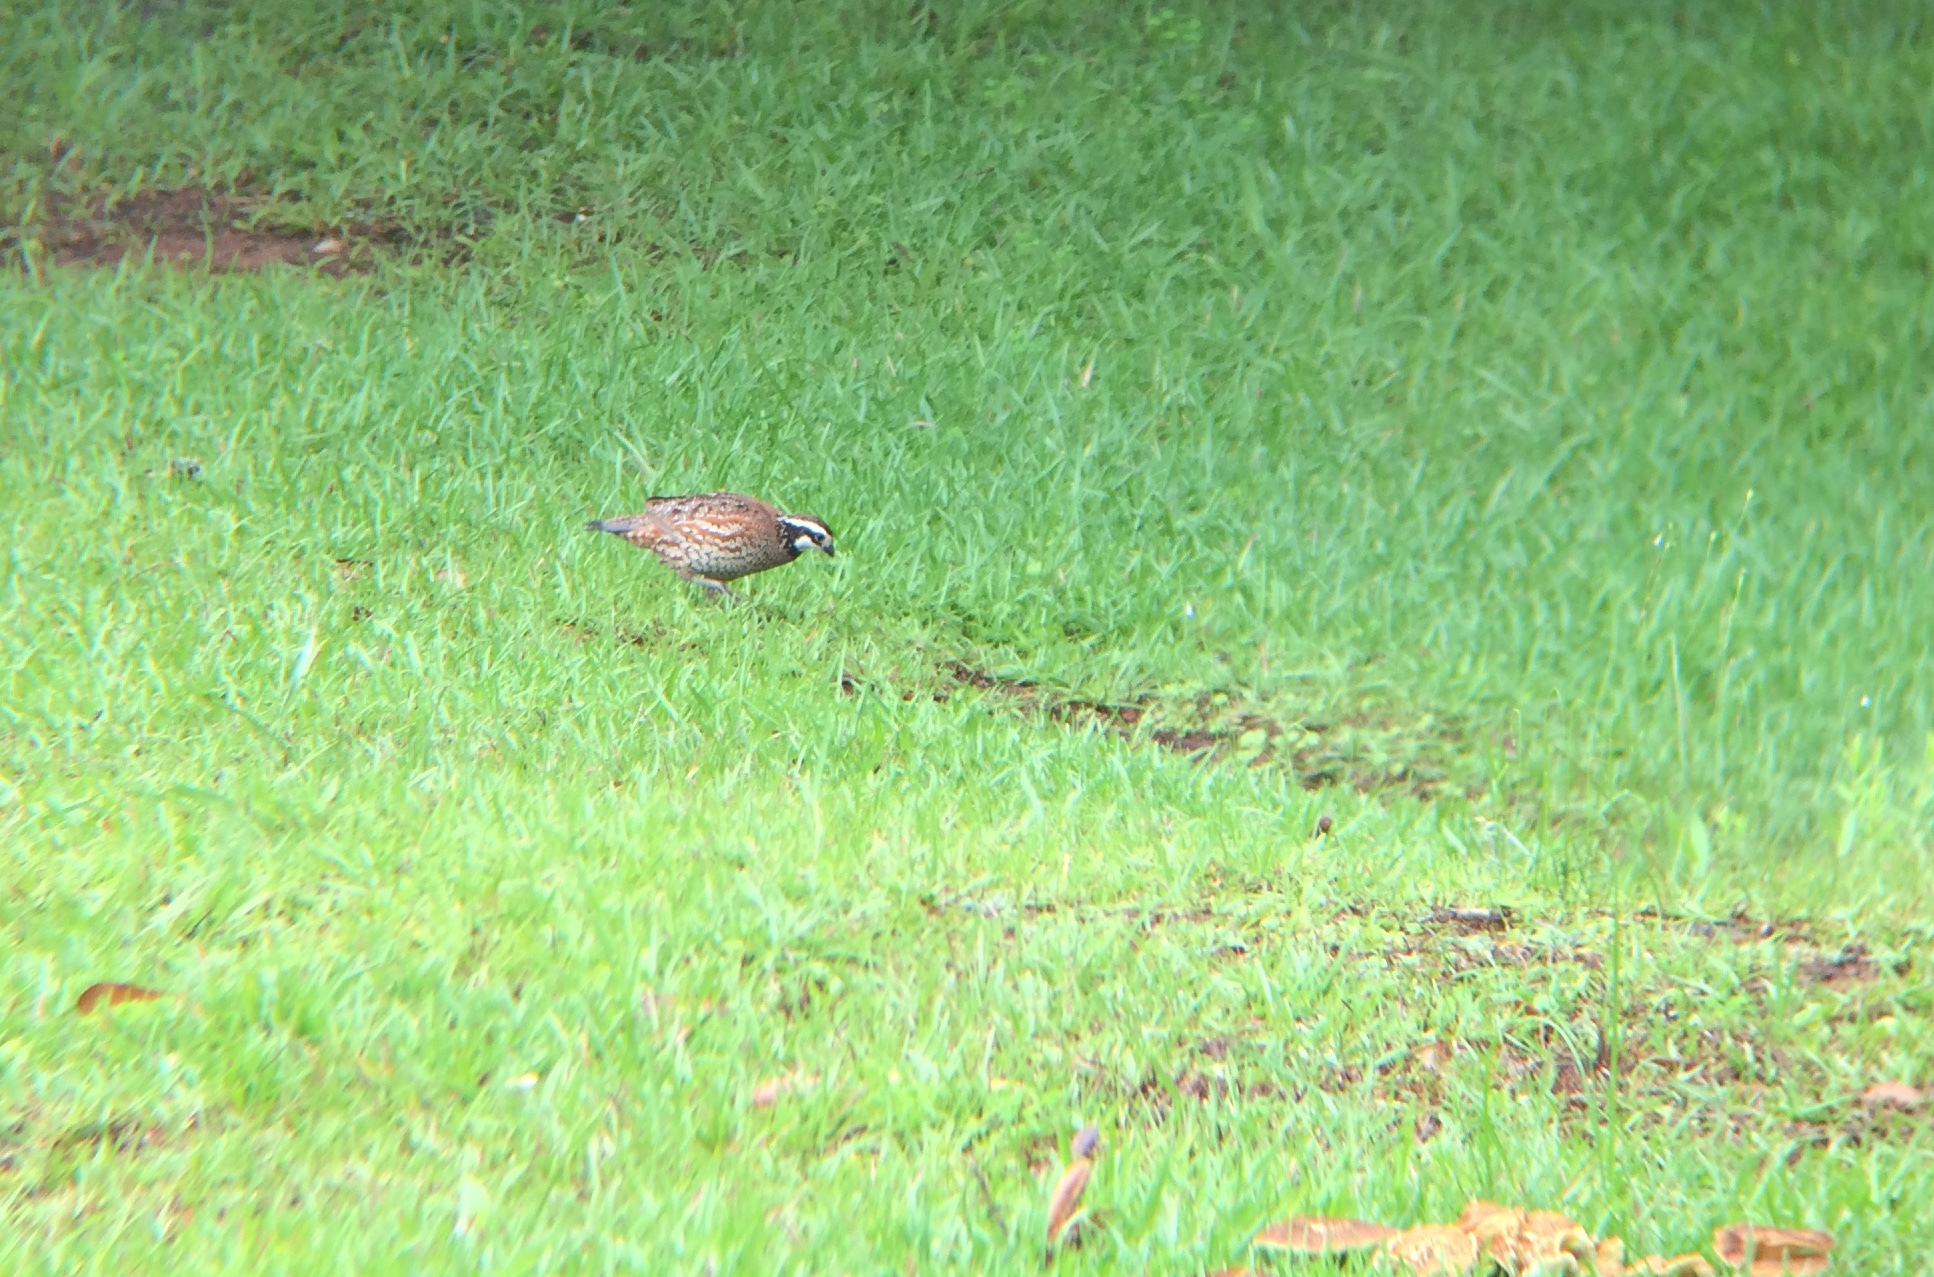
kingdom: Animalia
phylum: Chordata
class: Aves
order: Galliformes
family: Odontophoridae
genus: Colinus
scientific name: Colinus virginianus
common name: Northern bobwhite
